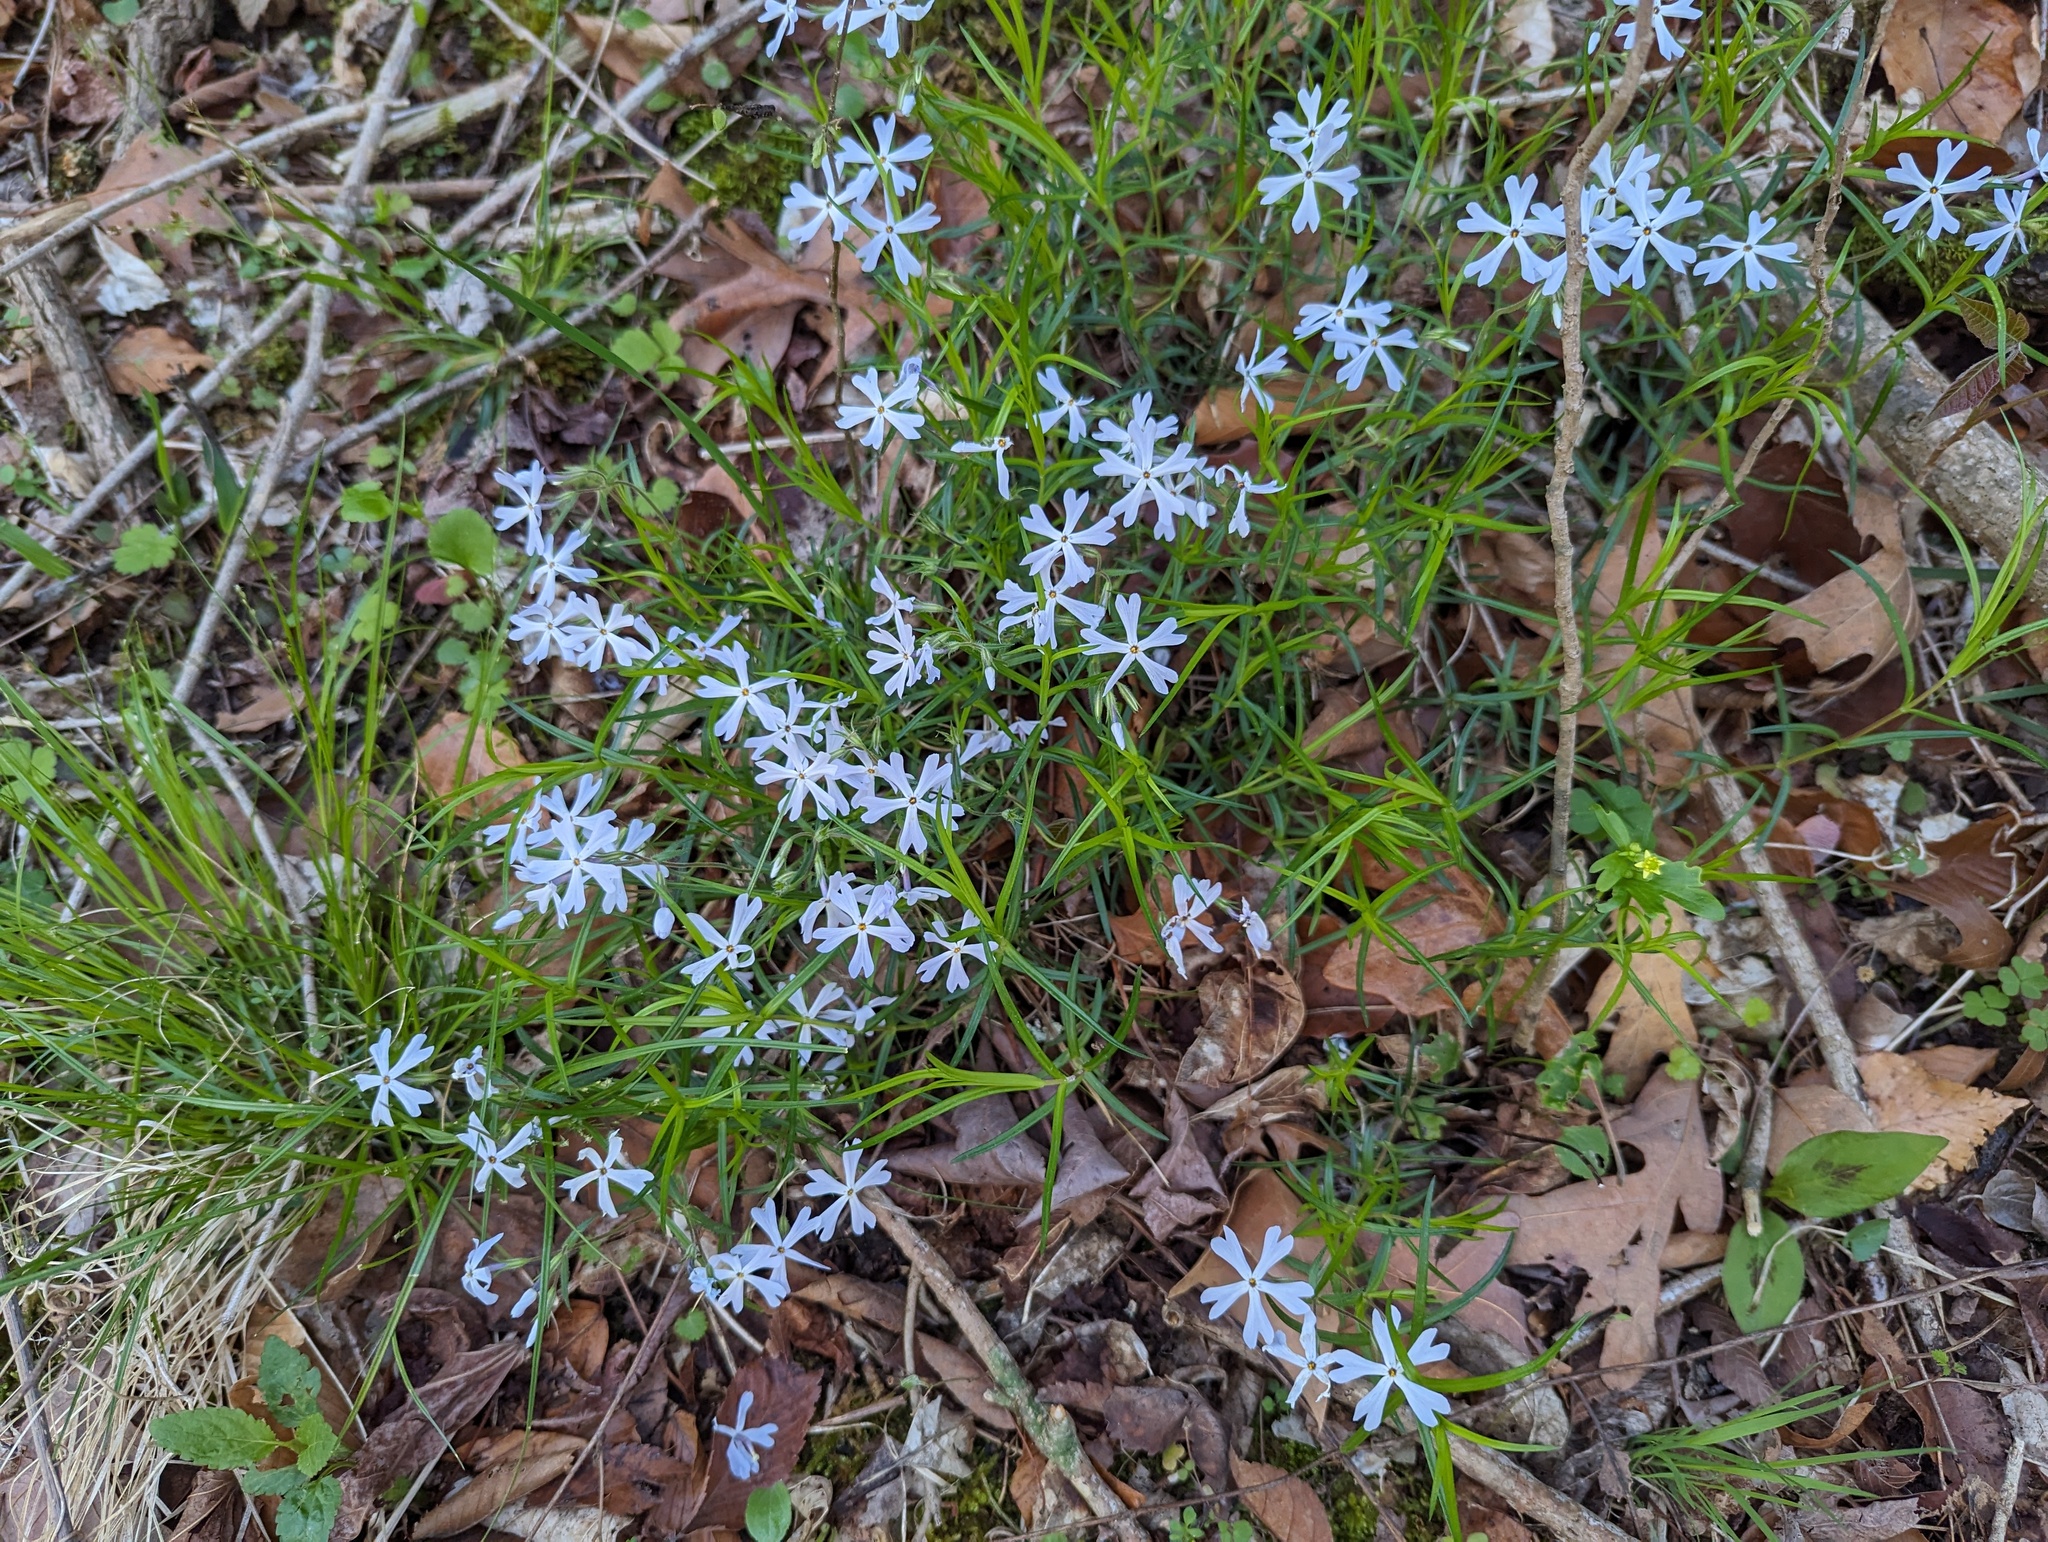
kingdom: Plantae
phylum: Tracheophyta
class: Magnoliopsida
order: Ericales
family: Polemoniaceae
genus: Phlox
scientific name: Phlox bifida
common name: Sand phlox
